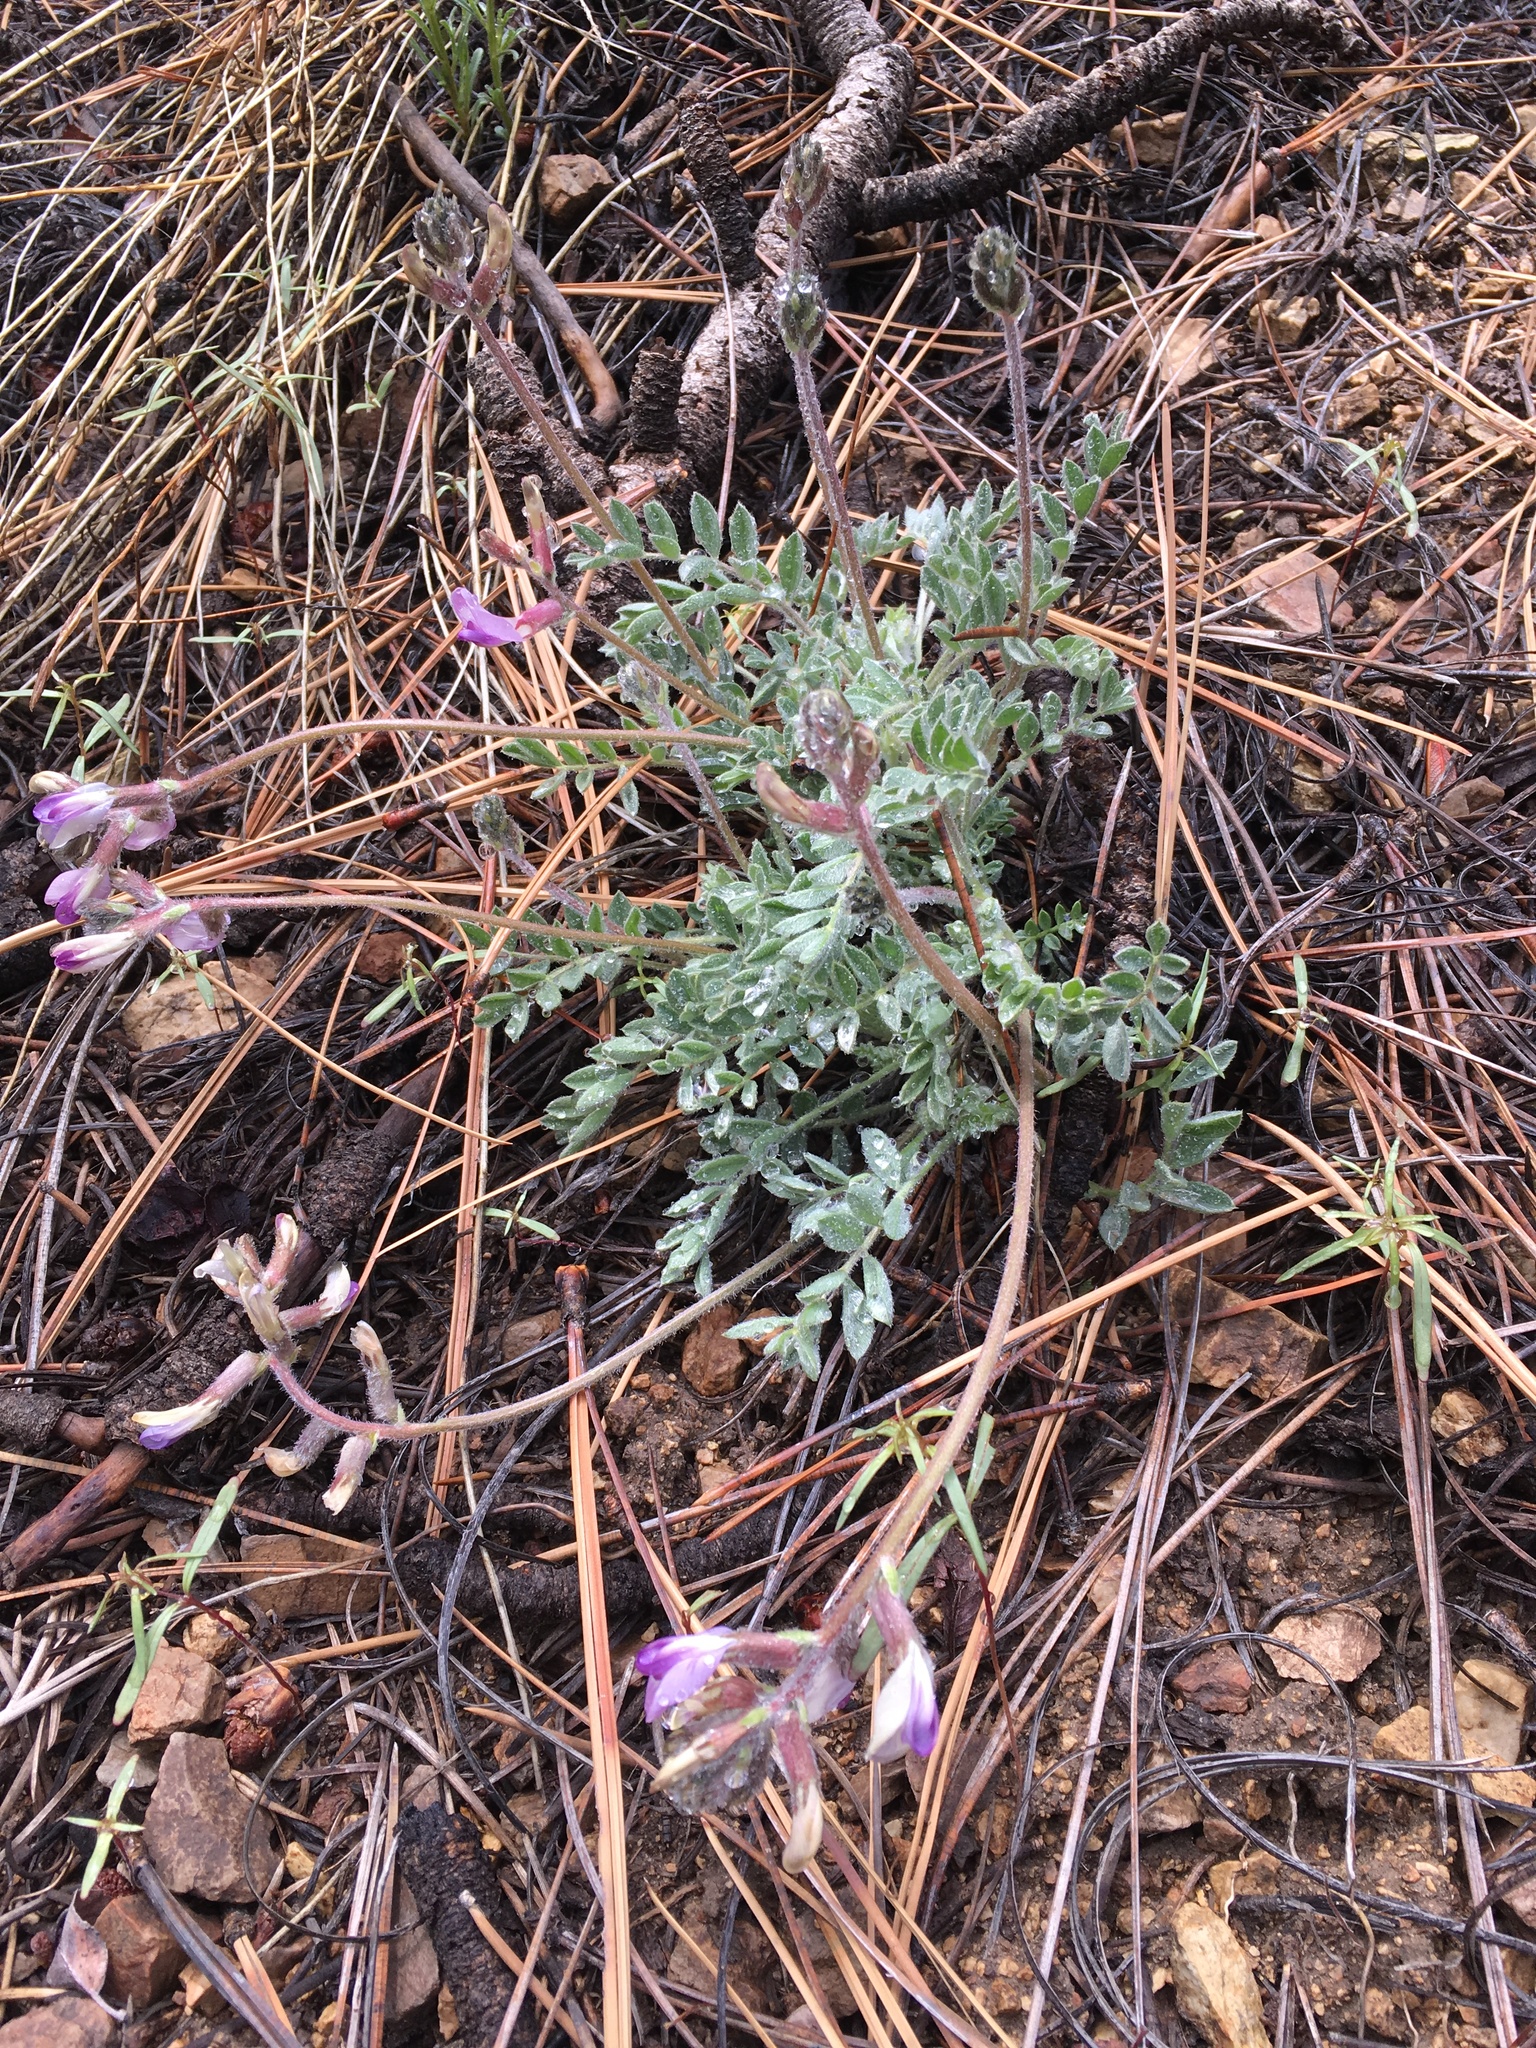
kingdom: Plantae
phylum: Tracheophyta
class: Magnoliopsida
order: Fabales
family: Fabaceae
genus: Astragalus
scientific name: Astragalus leucolobus
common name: Big bear valley woollypod
